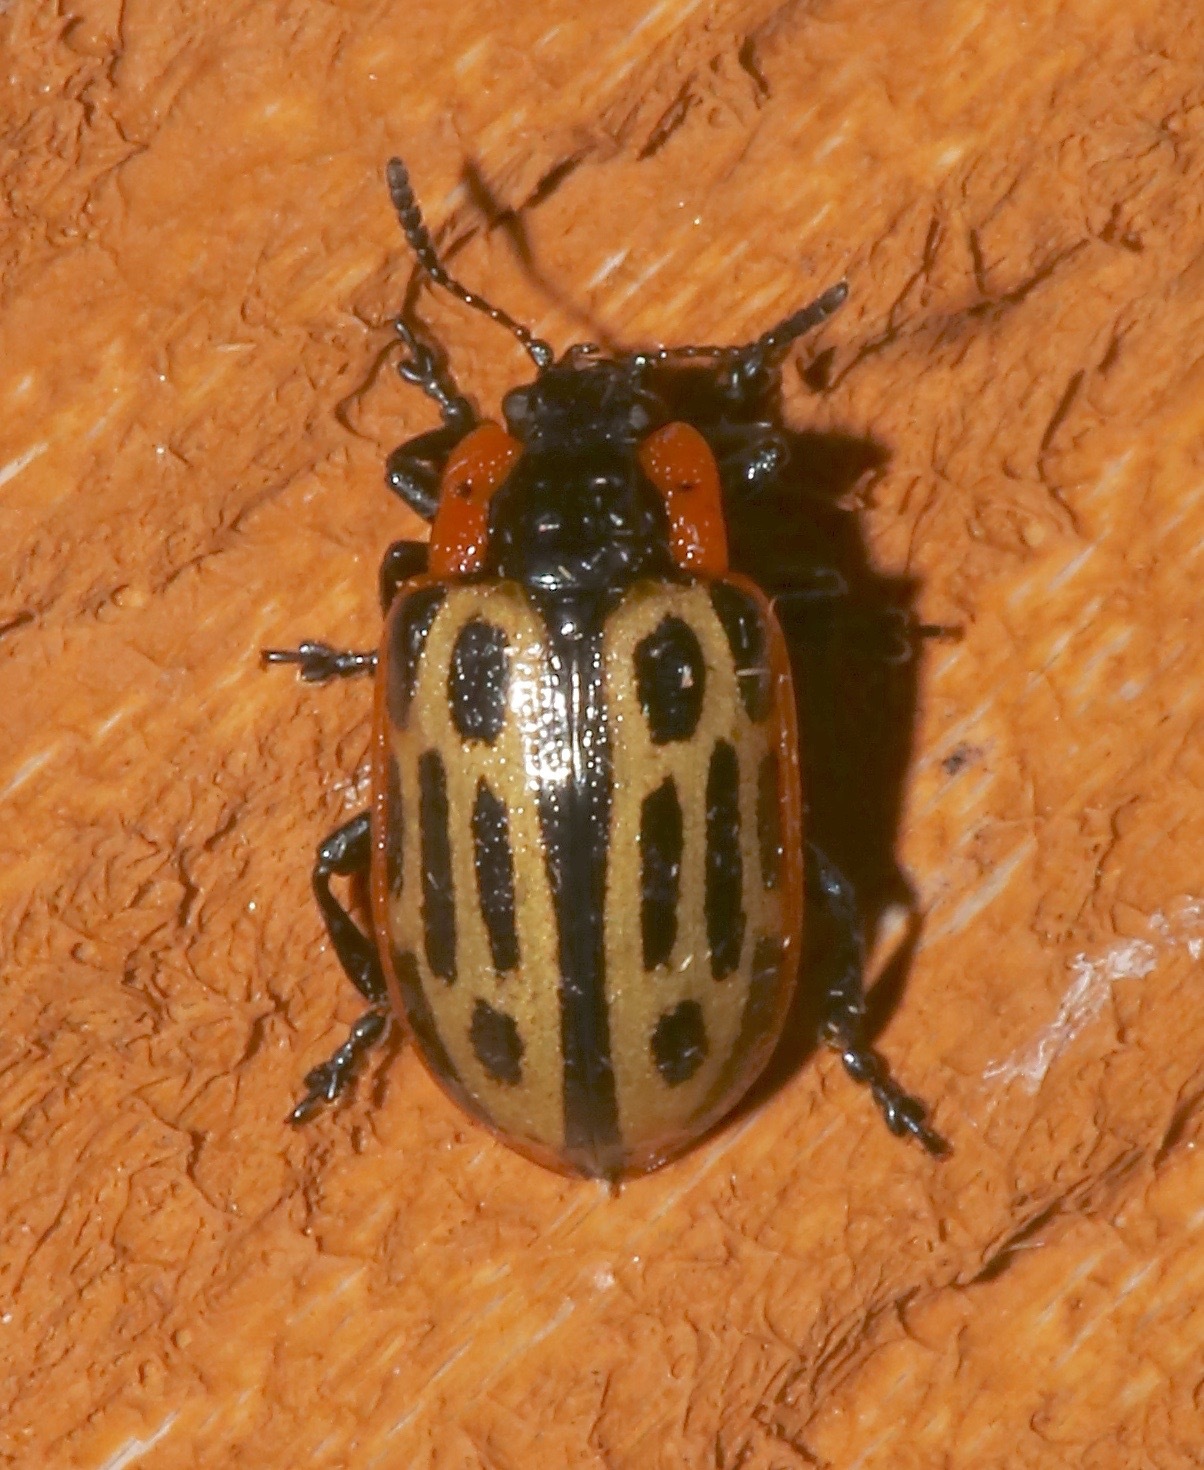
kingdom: Animalia
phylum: Arthropoda
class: Insecta
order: Coleoptera
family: Chrysomelidae
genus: Aethiopocassis
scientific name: Aethiopocassis scripta
